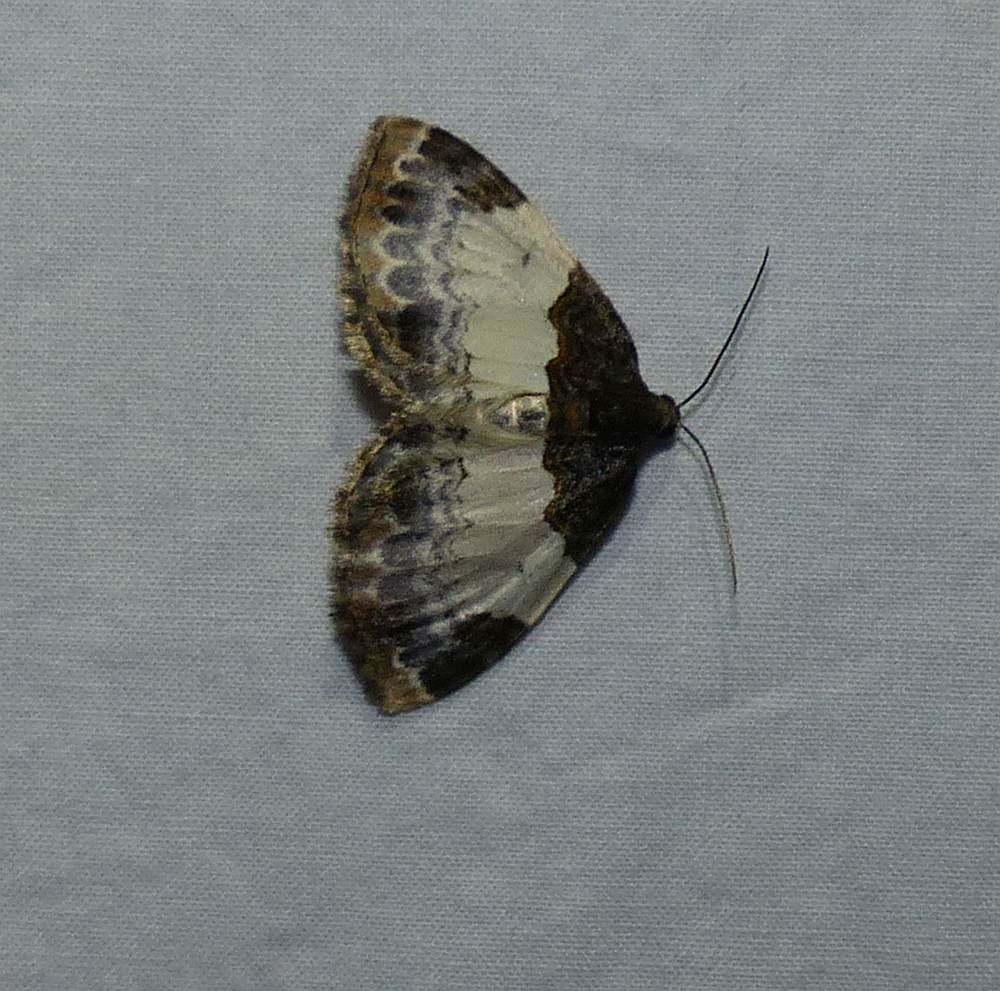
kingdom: Animalia
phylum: Arthropoda
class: Insecta
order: Lepidoptera
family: Geometridae
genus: Mesoleuca
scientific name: Mesoleuca ruficillata
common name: White-ribboned carpet moth
